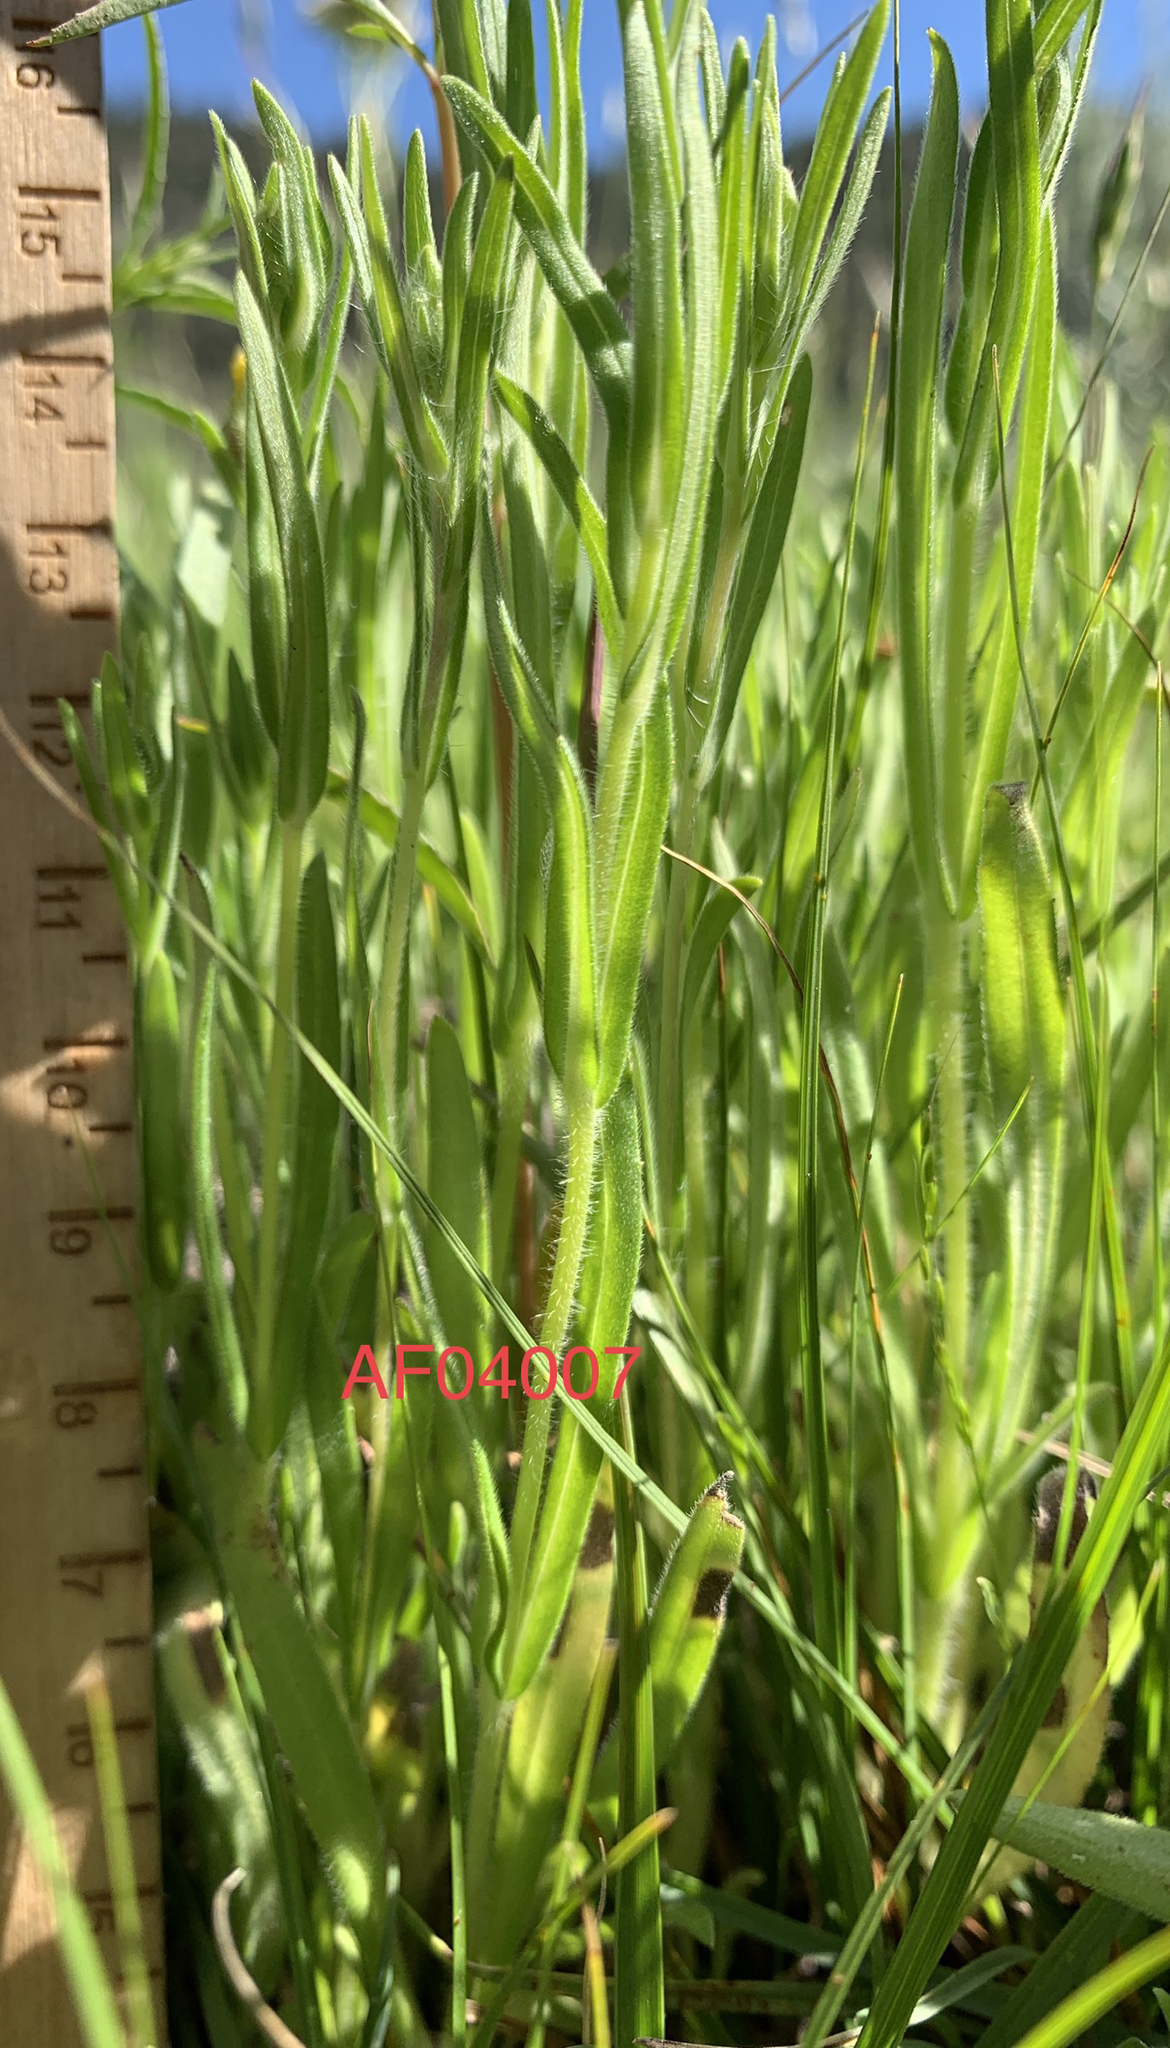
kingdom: Plantae
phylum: Tracheophyta
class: Magnoliopsida
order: Asterales
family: Asteraceae
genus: Madia
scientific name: Madia gracilis
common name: Grassy tarweed
